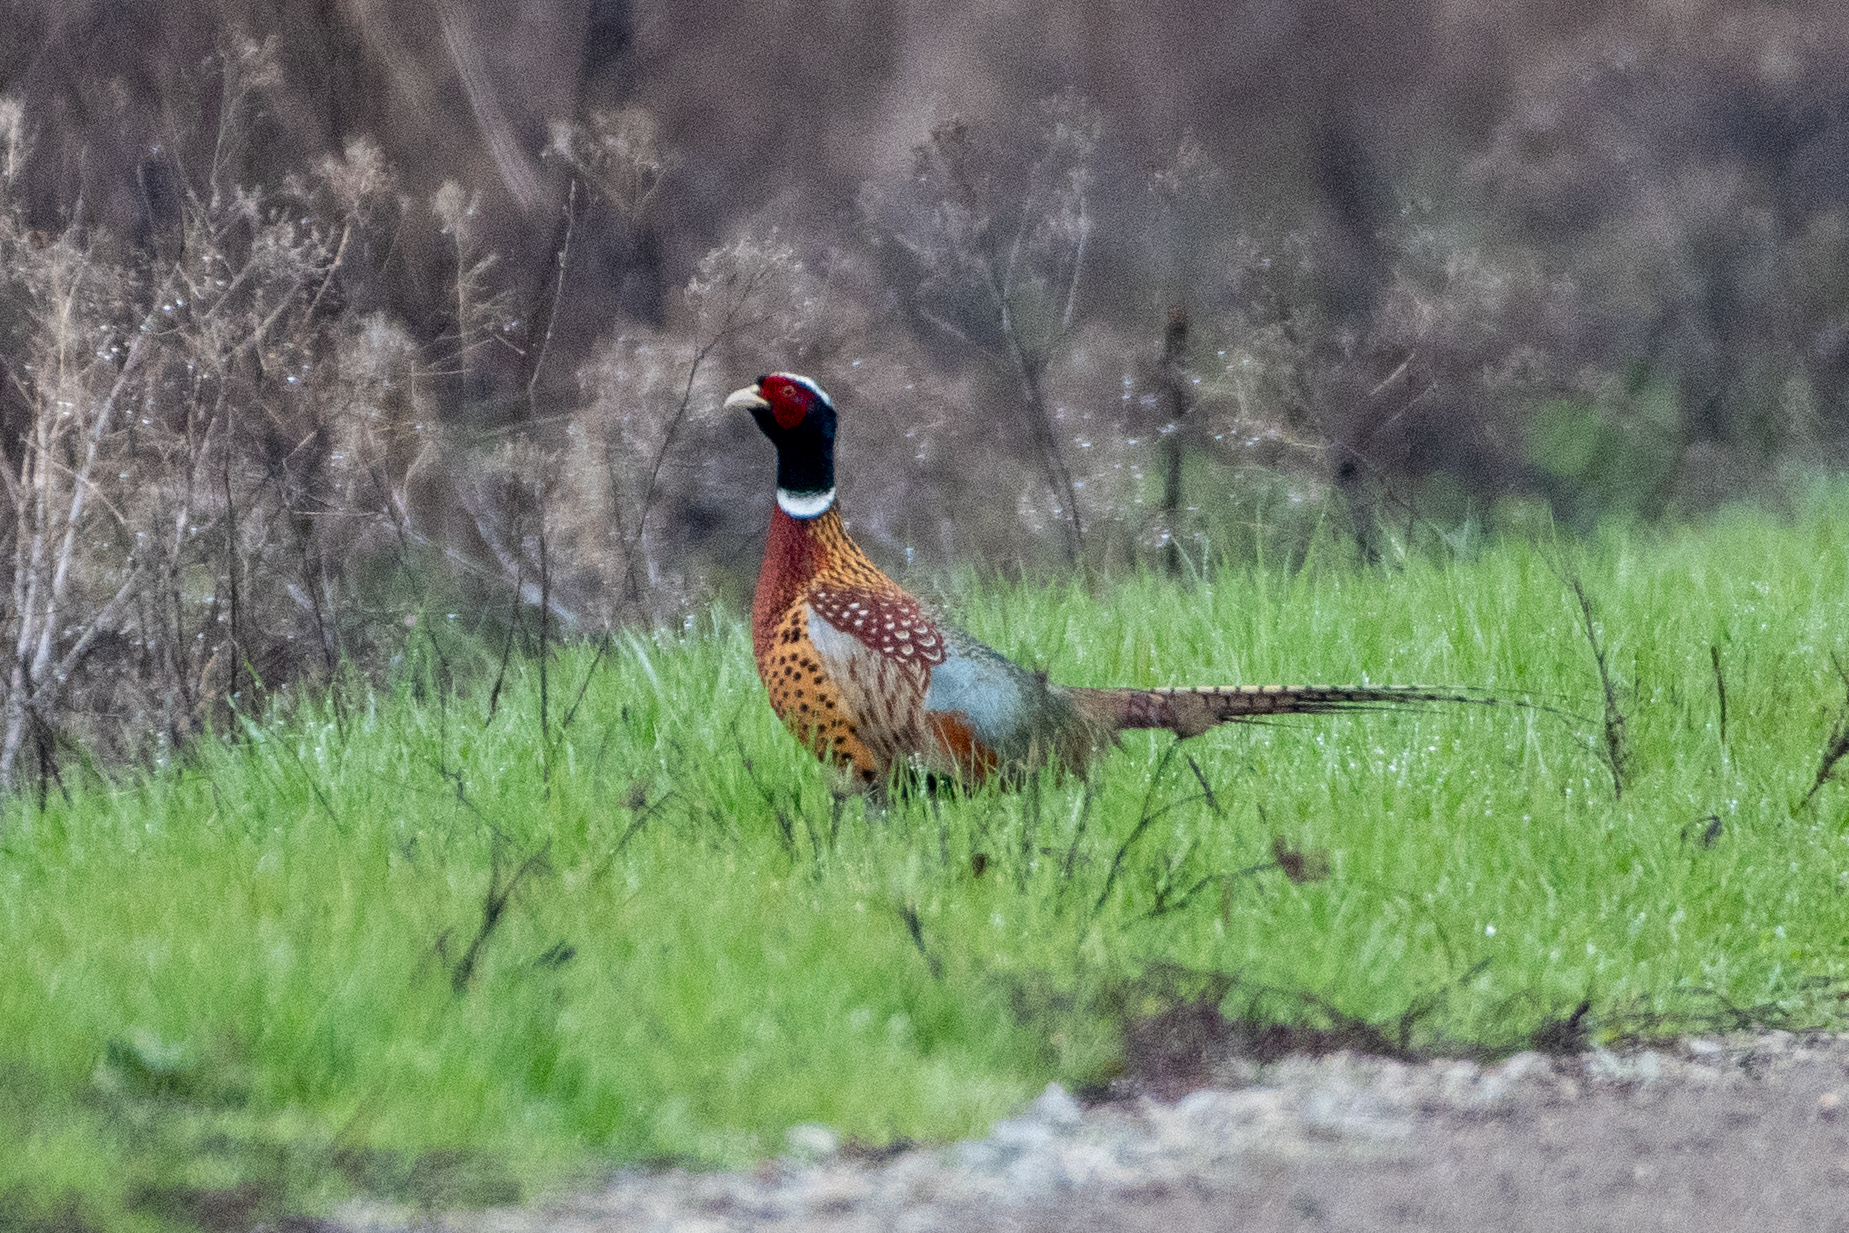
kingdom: Animalia
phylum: Chordata
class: Aves
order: Galliformes
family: Phasianidae
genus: Phasianus
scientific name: Phasianus colchicus
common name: Common pheasant
